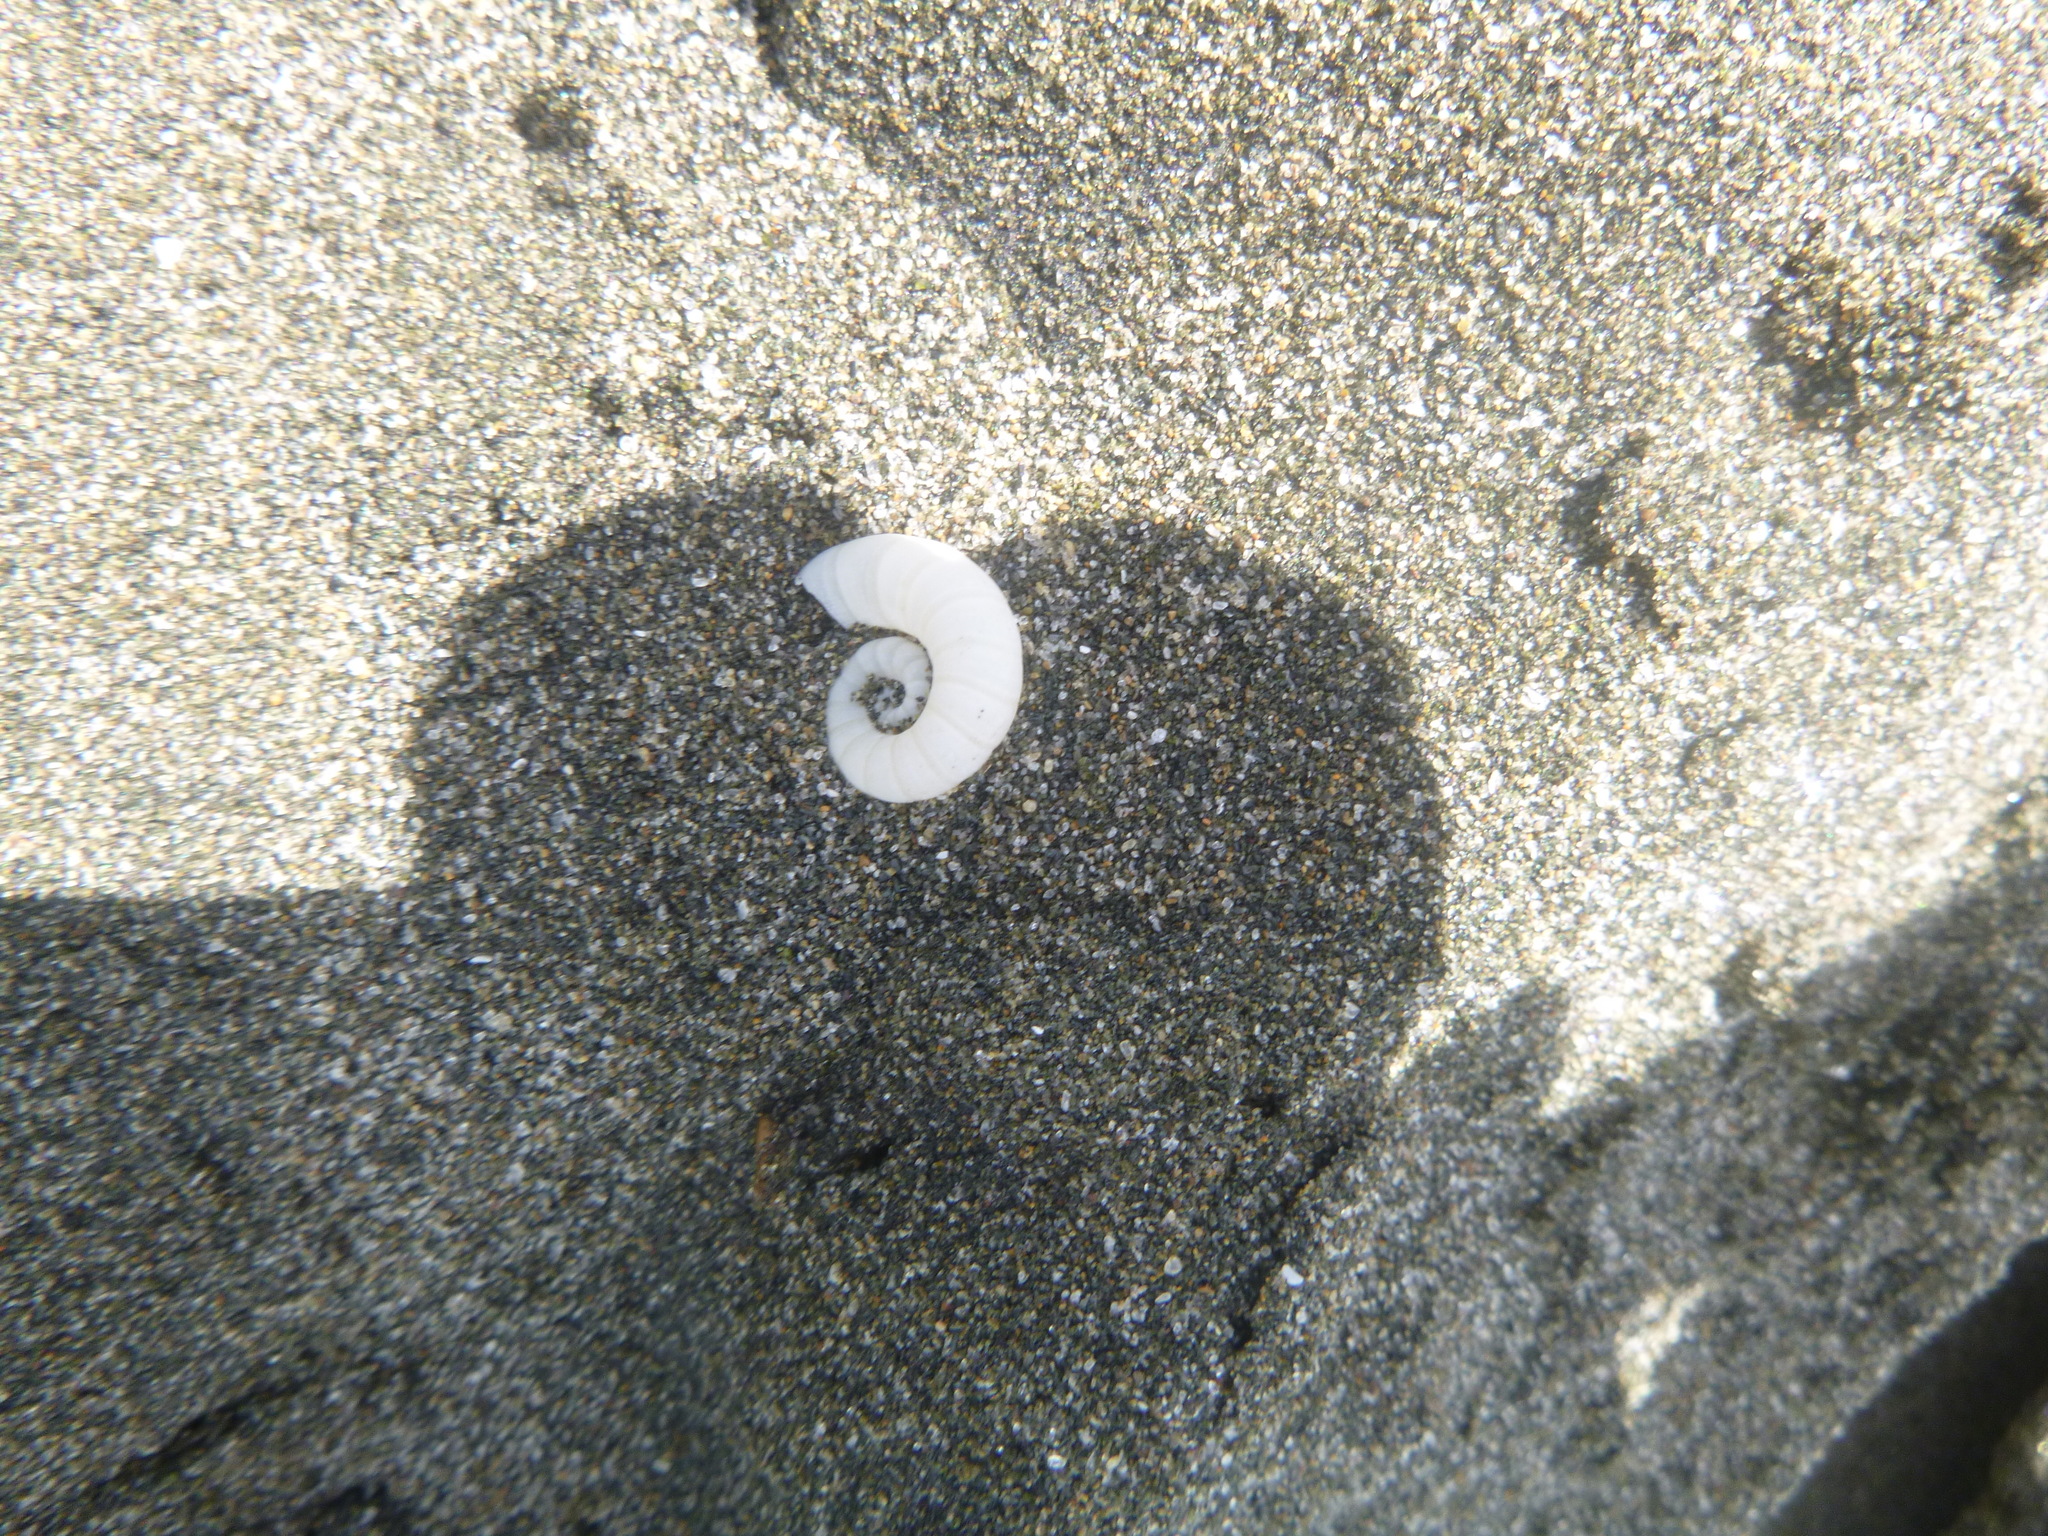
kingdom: Animalia
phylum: Mollusca
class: Cephalopoda
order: Spirulida
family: Spirulidae
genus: Spirula
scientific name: Spirula spirula
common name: Ram's horn squid
